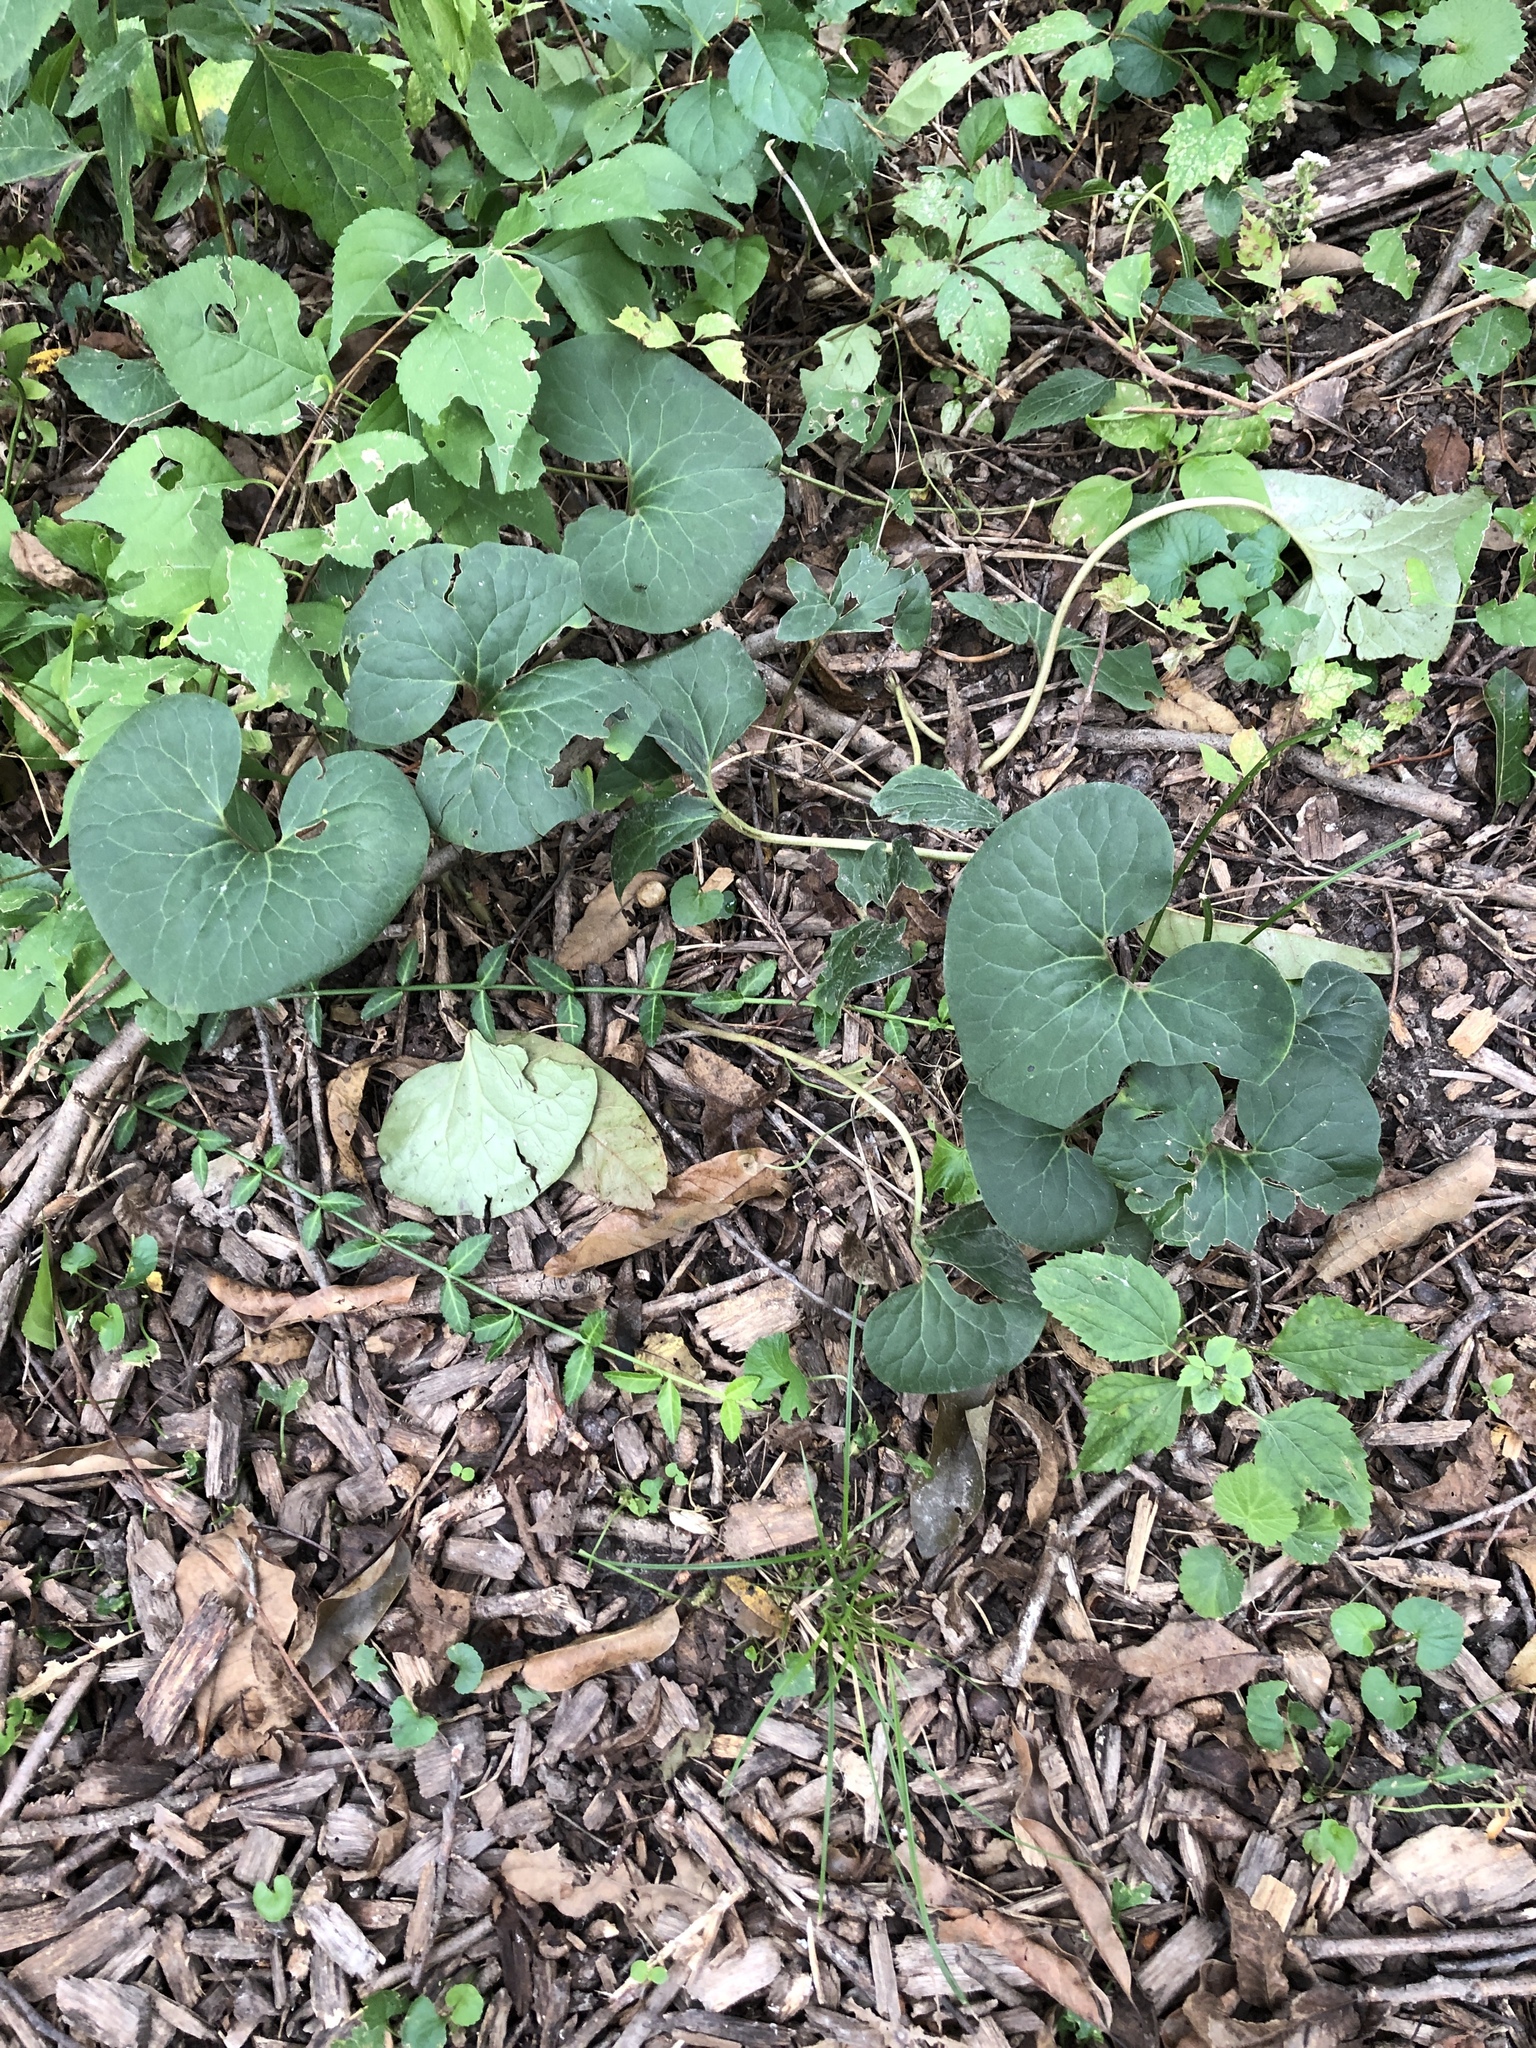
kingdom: Plantae
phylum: Tracheophyta
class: Magnoliopsida
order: Piperales
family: Aristolochiaceae
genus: Asarum
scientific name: Asarum canadense
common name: Wild ginger
